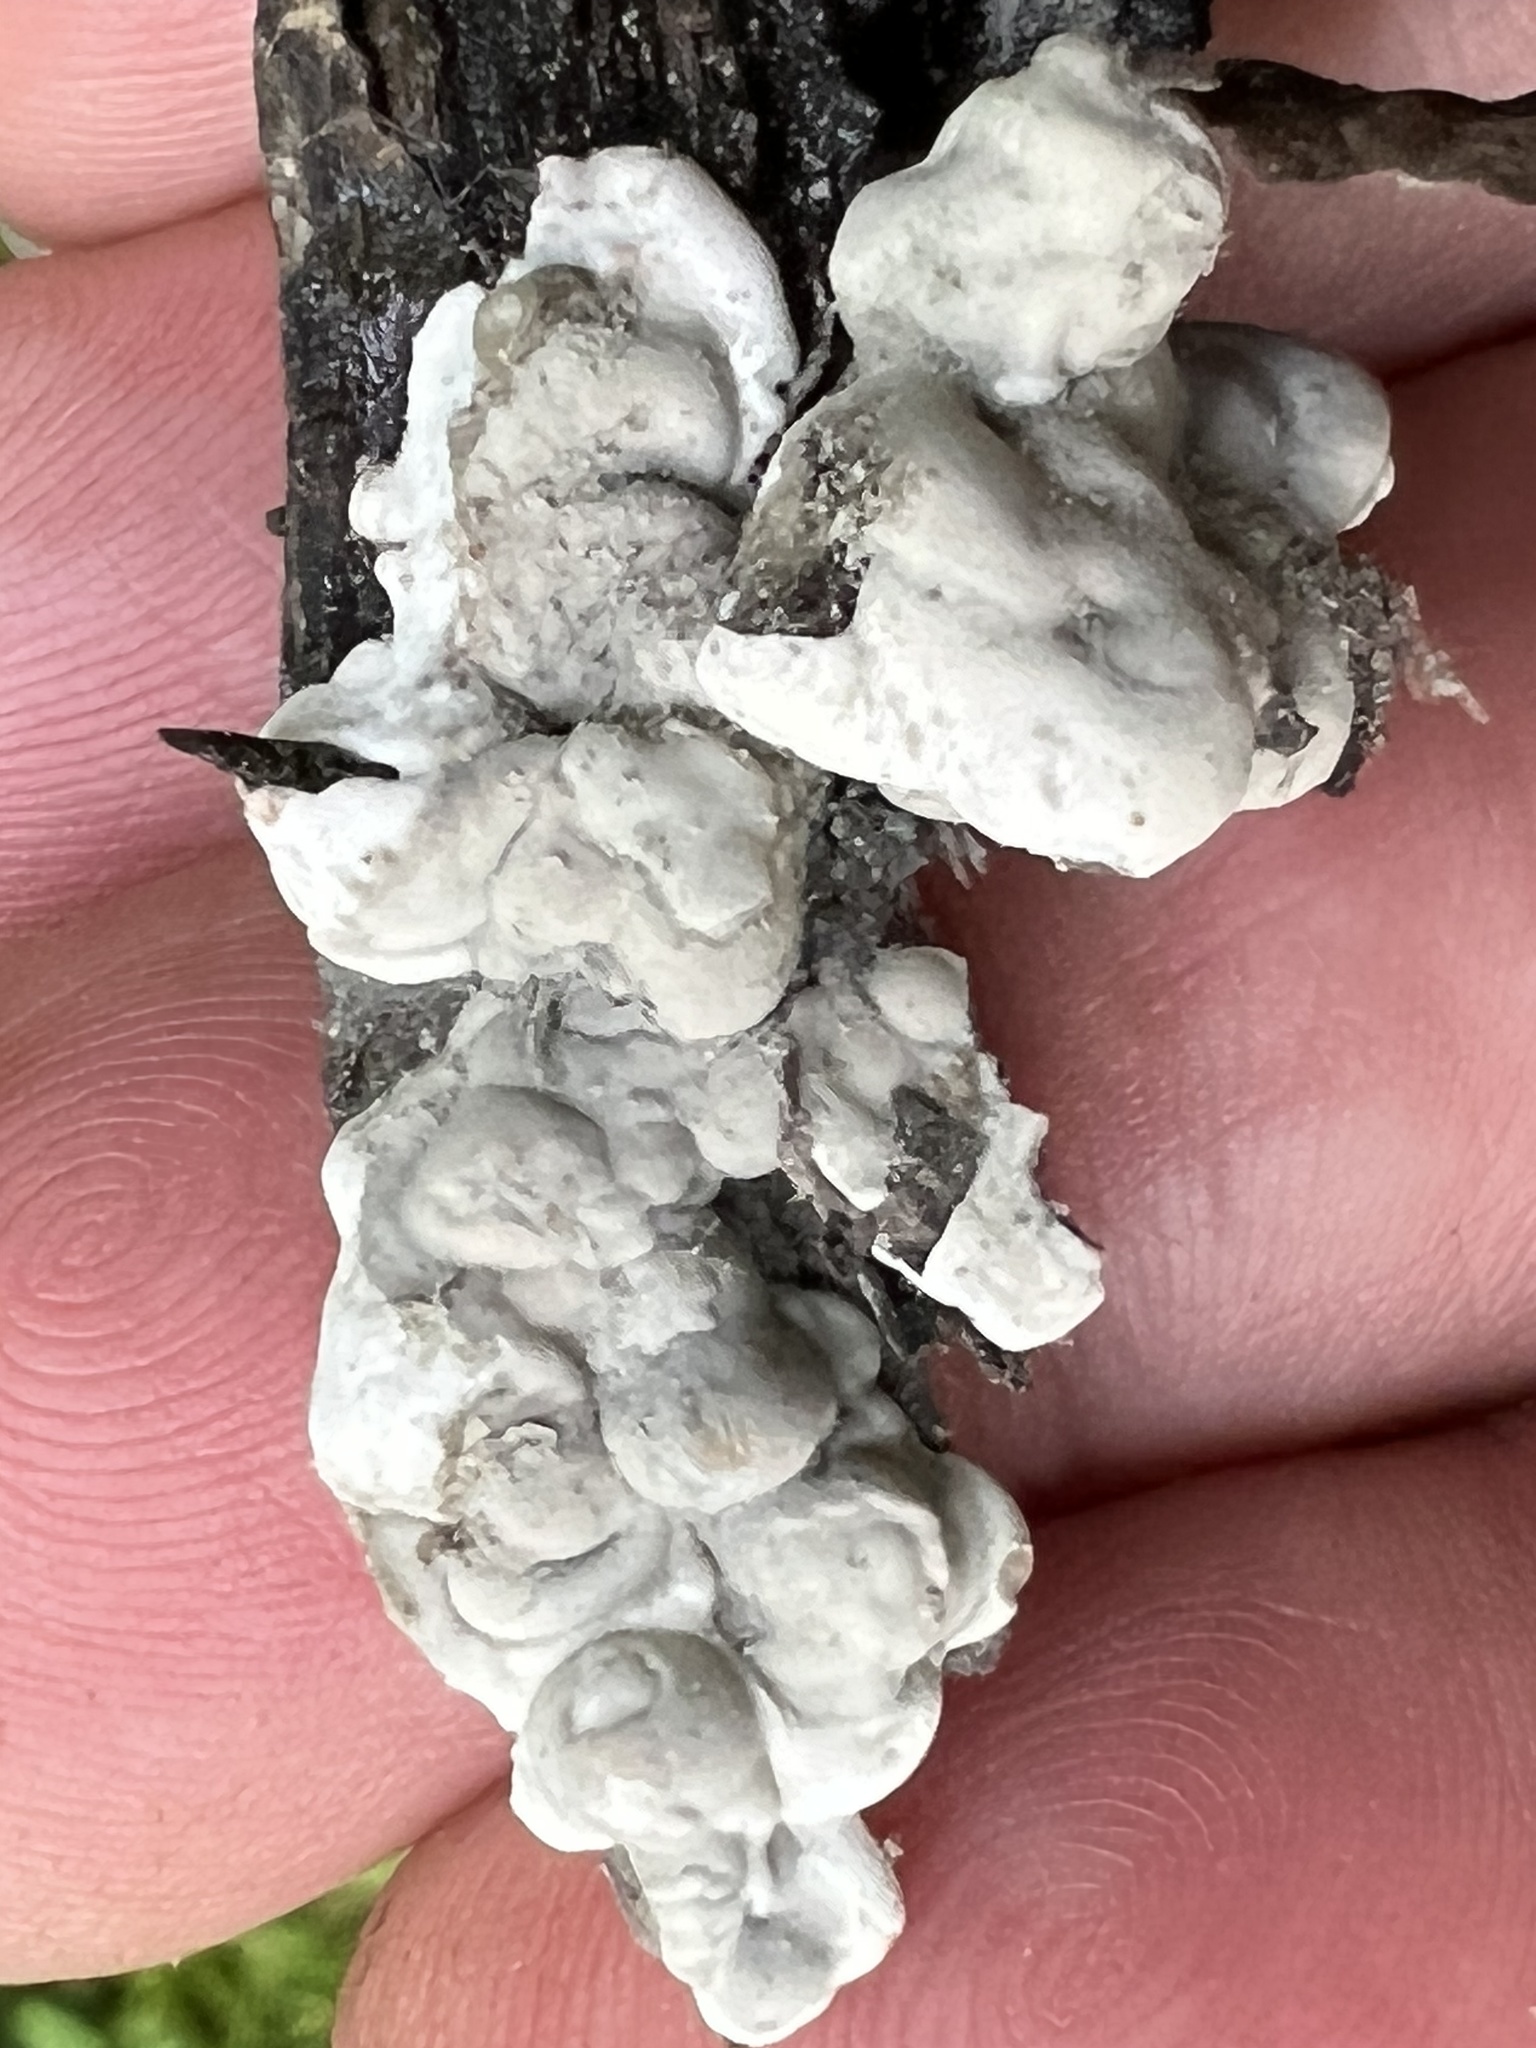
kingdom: Fungi
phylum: Ascomycota
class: Sordariomycetes
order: Xylariales
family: Xylariaceae
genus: Kretzschmaria
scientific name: Kretzschmaria deusta
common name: Brittle cinder
